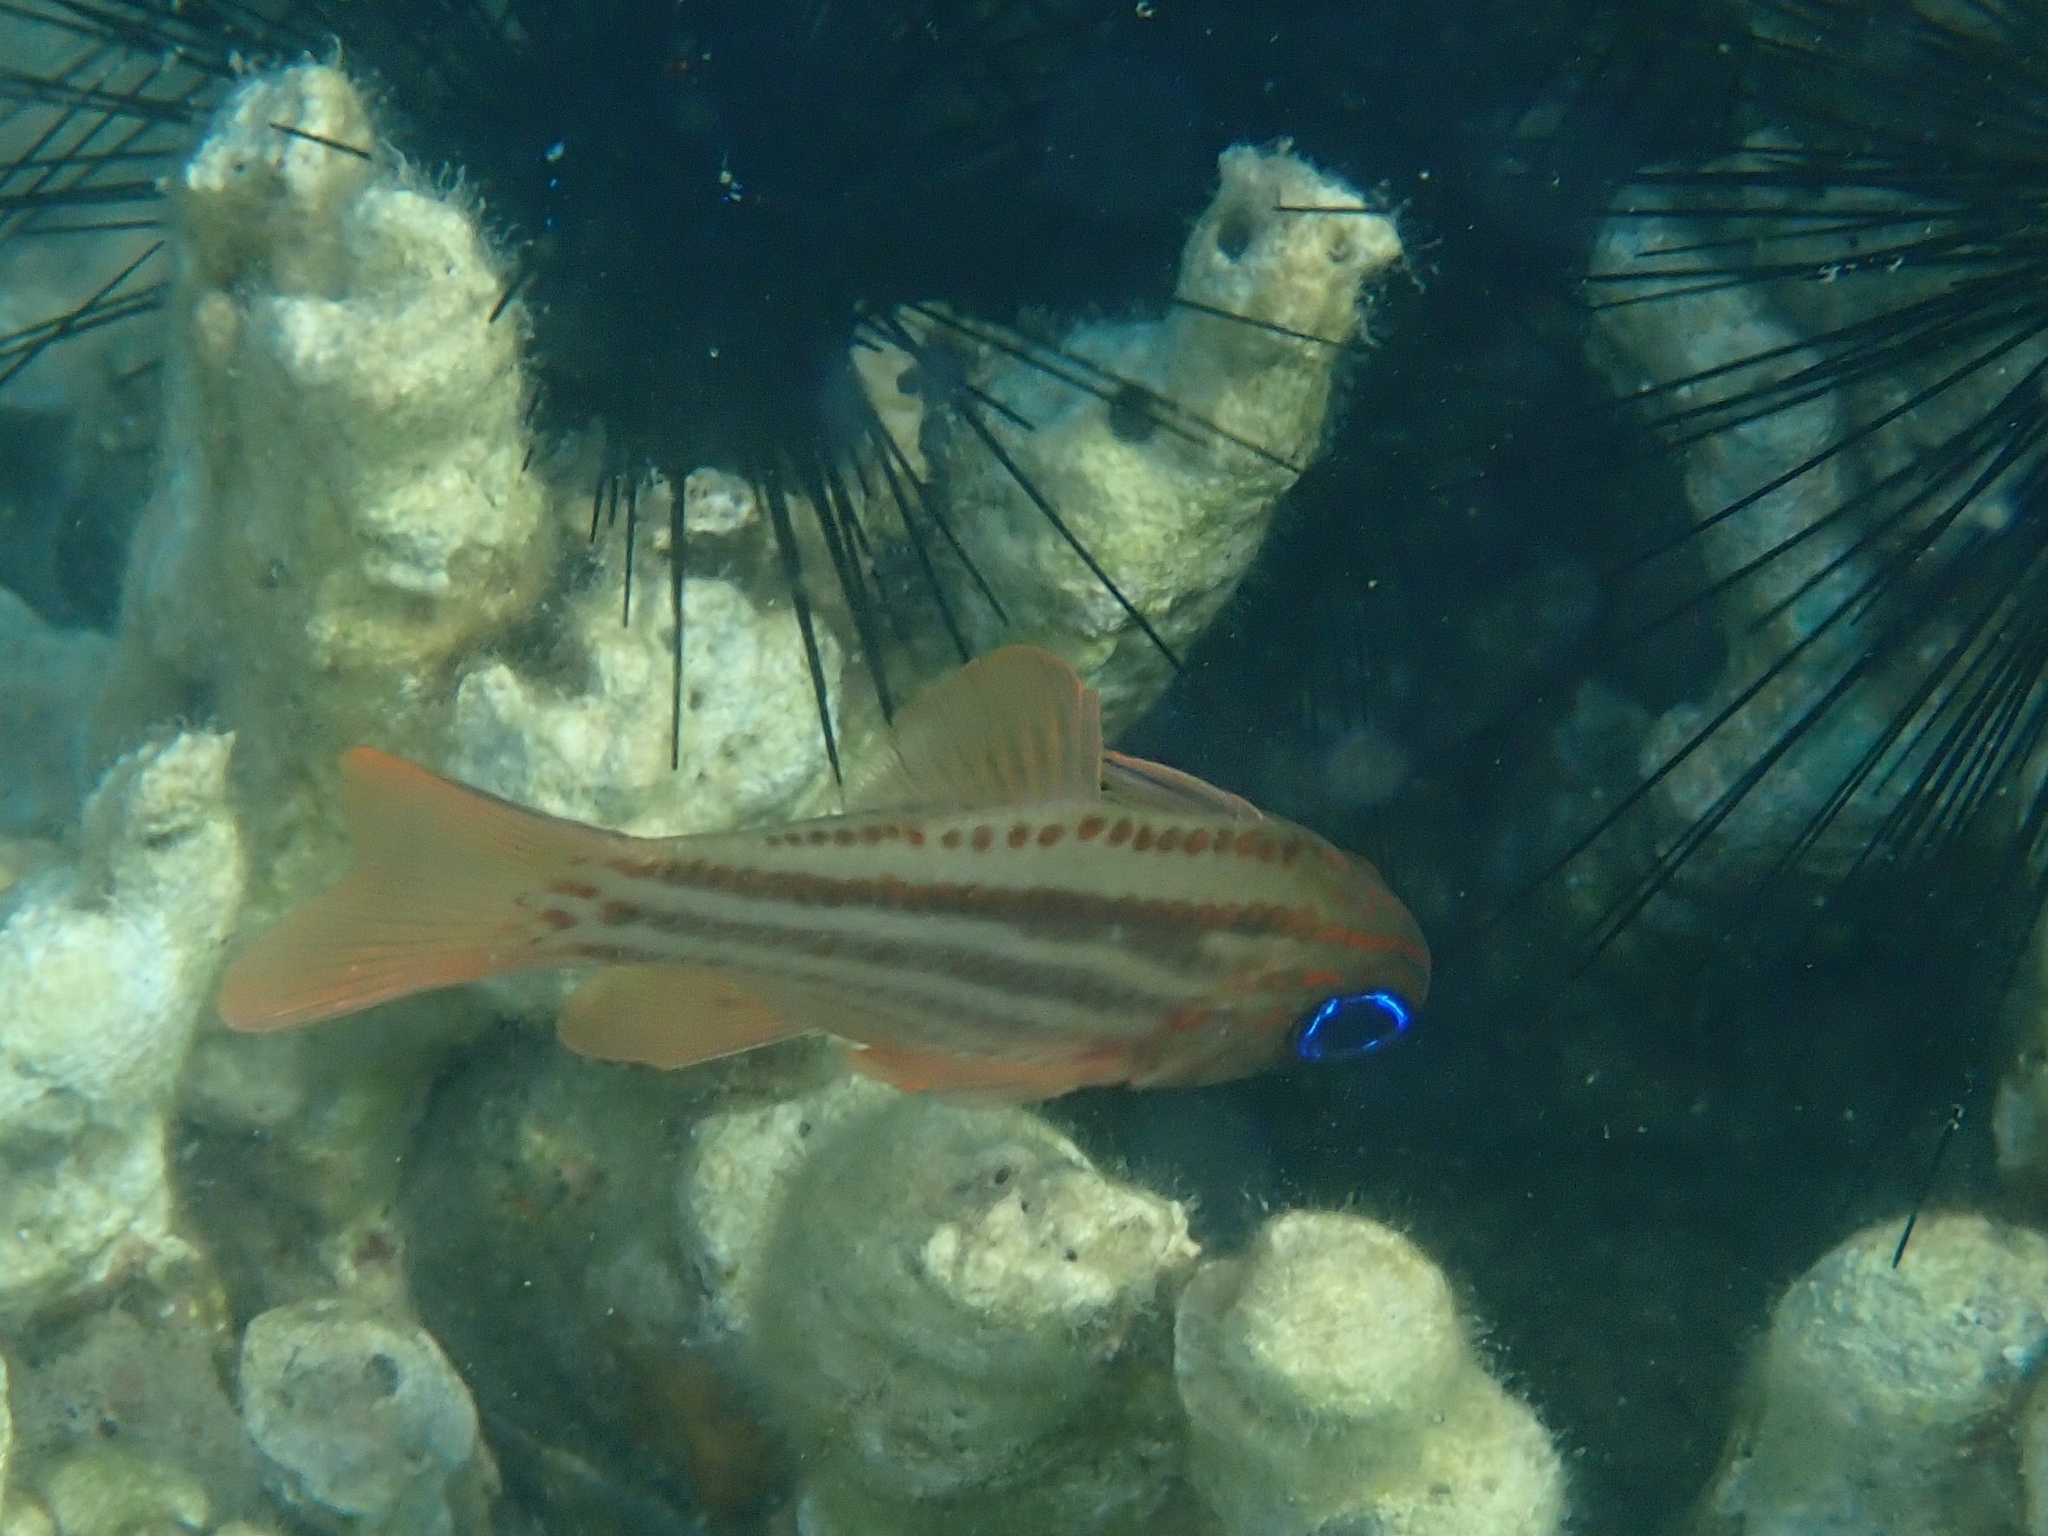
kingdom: Animalia
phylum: Chordata
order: Perciformes
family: Apogonidae
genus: Ostorhinchus
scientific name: Ostorhinchus compressus
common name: Ochre-striped cardinalfish
